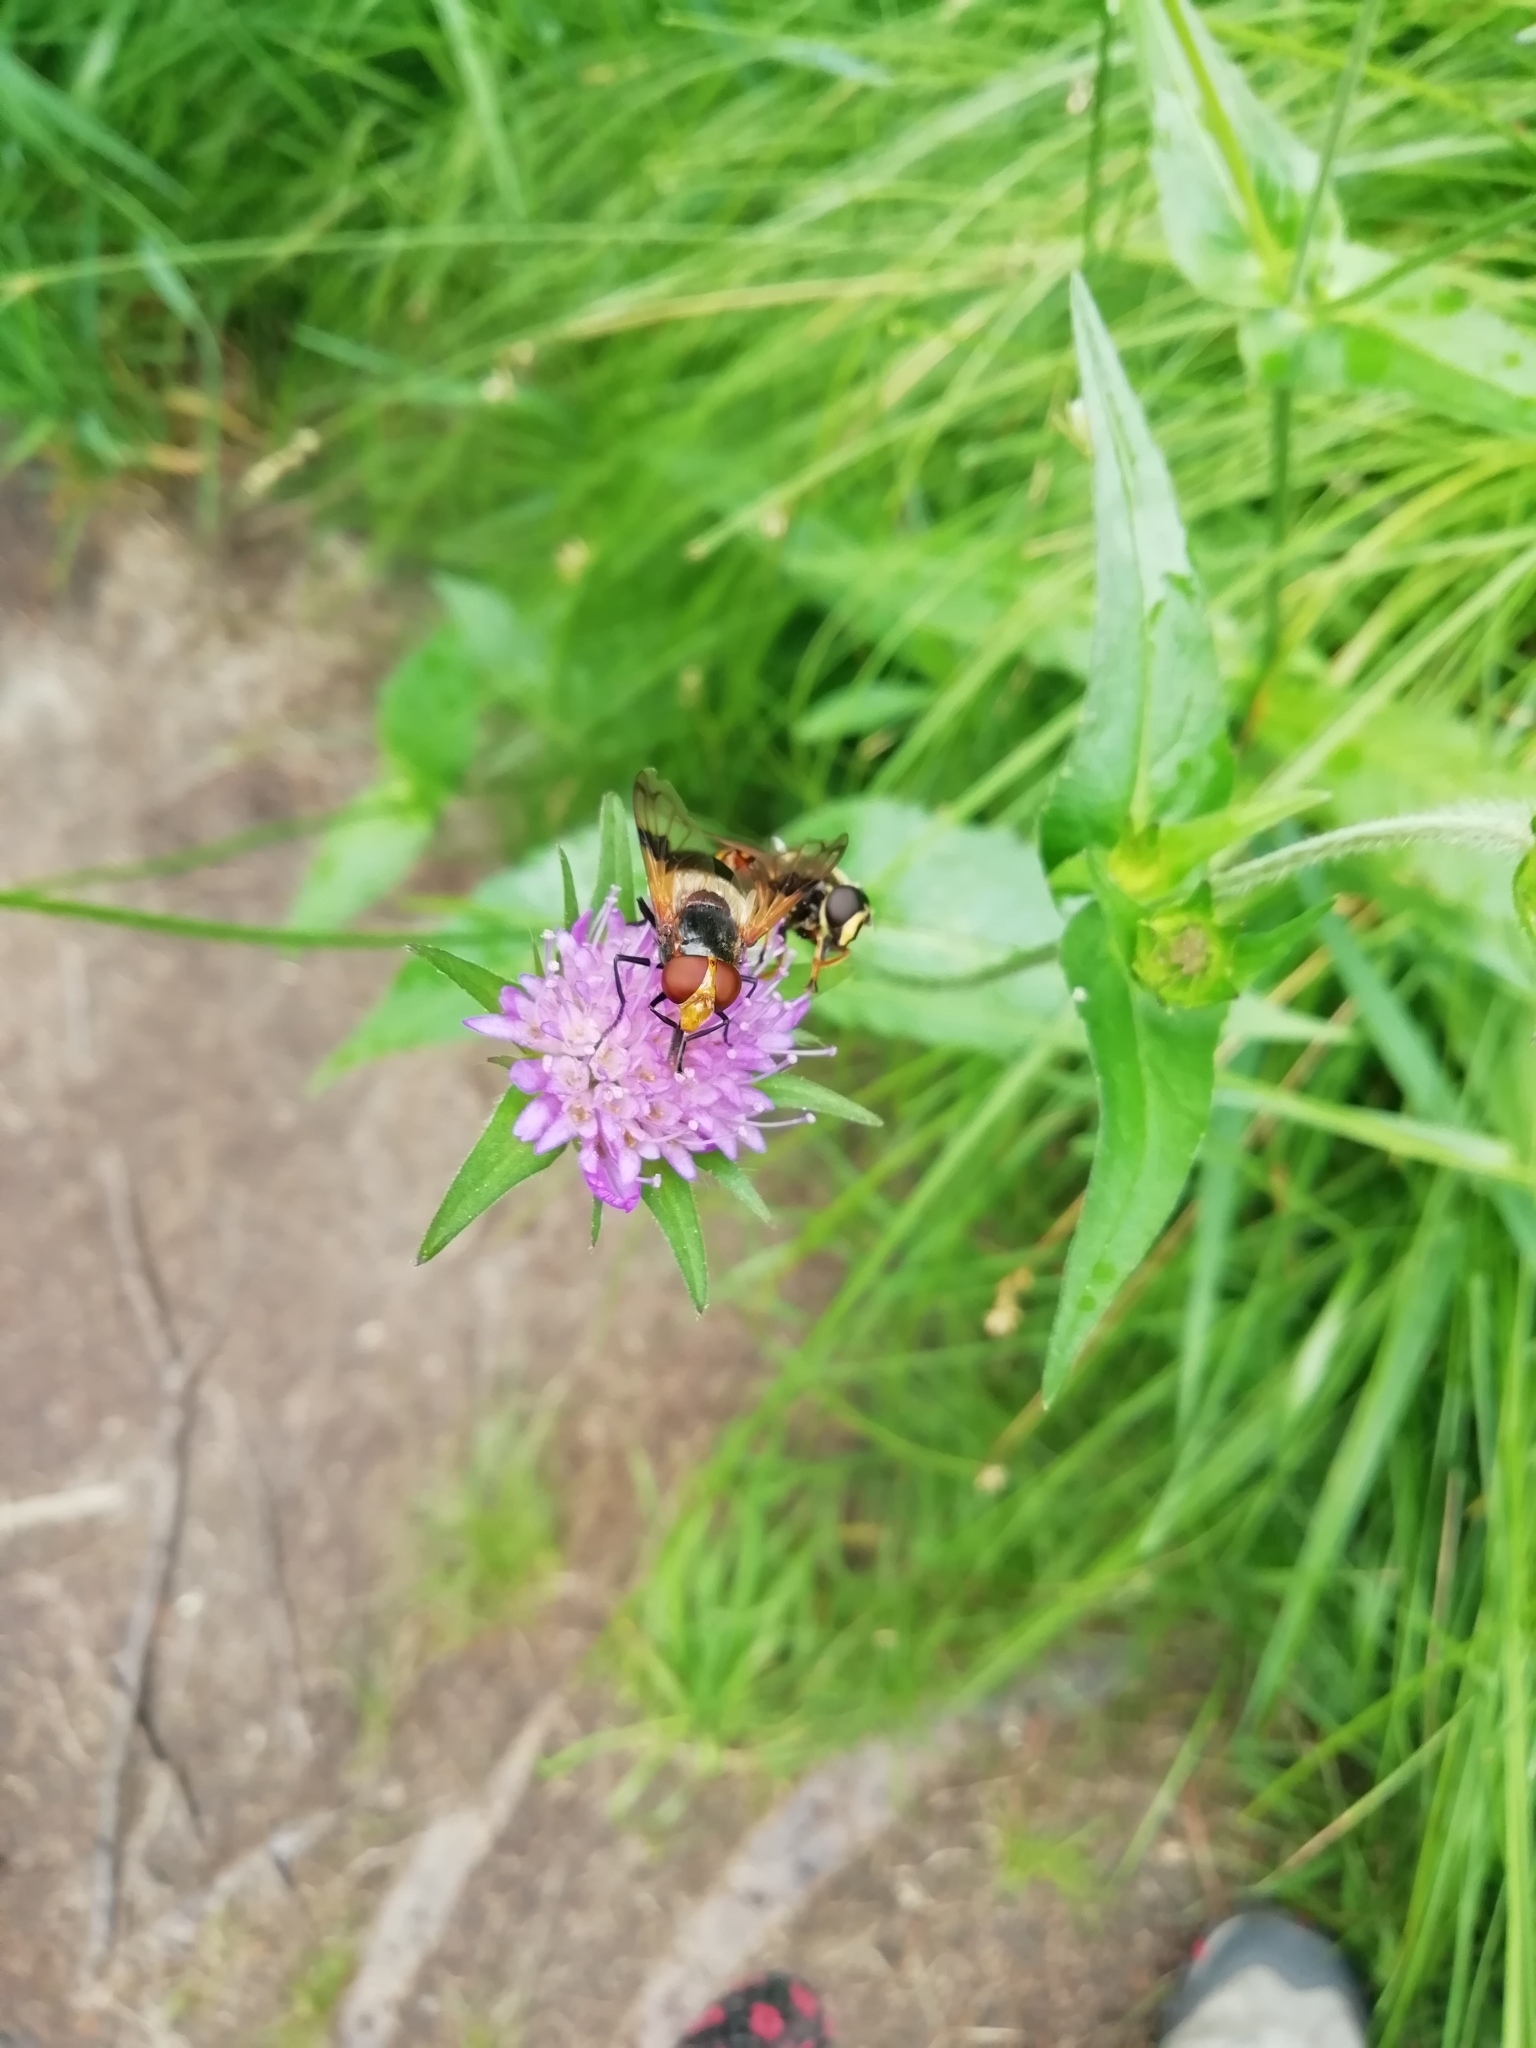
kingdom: Animalia
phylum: Arthropoda
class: Insecta
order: Diptera
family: Syrphidae
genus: Volucella
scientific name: Volucella pellucens
